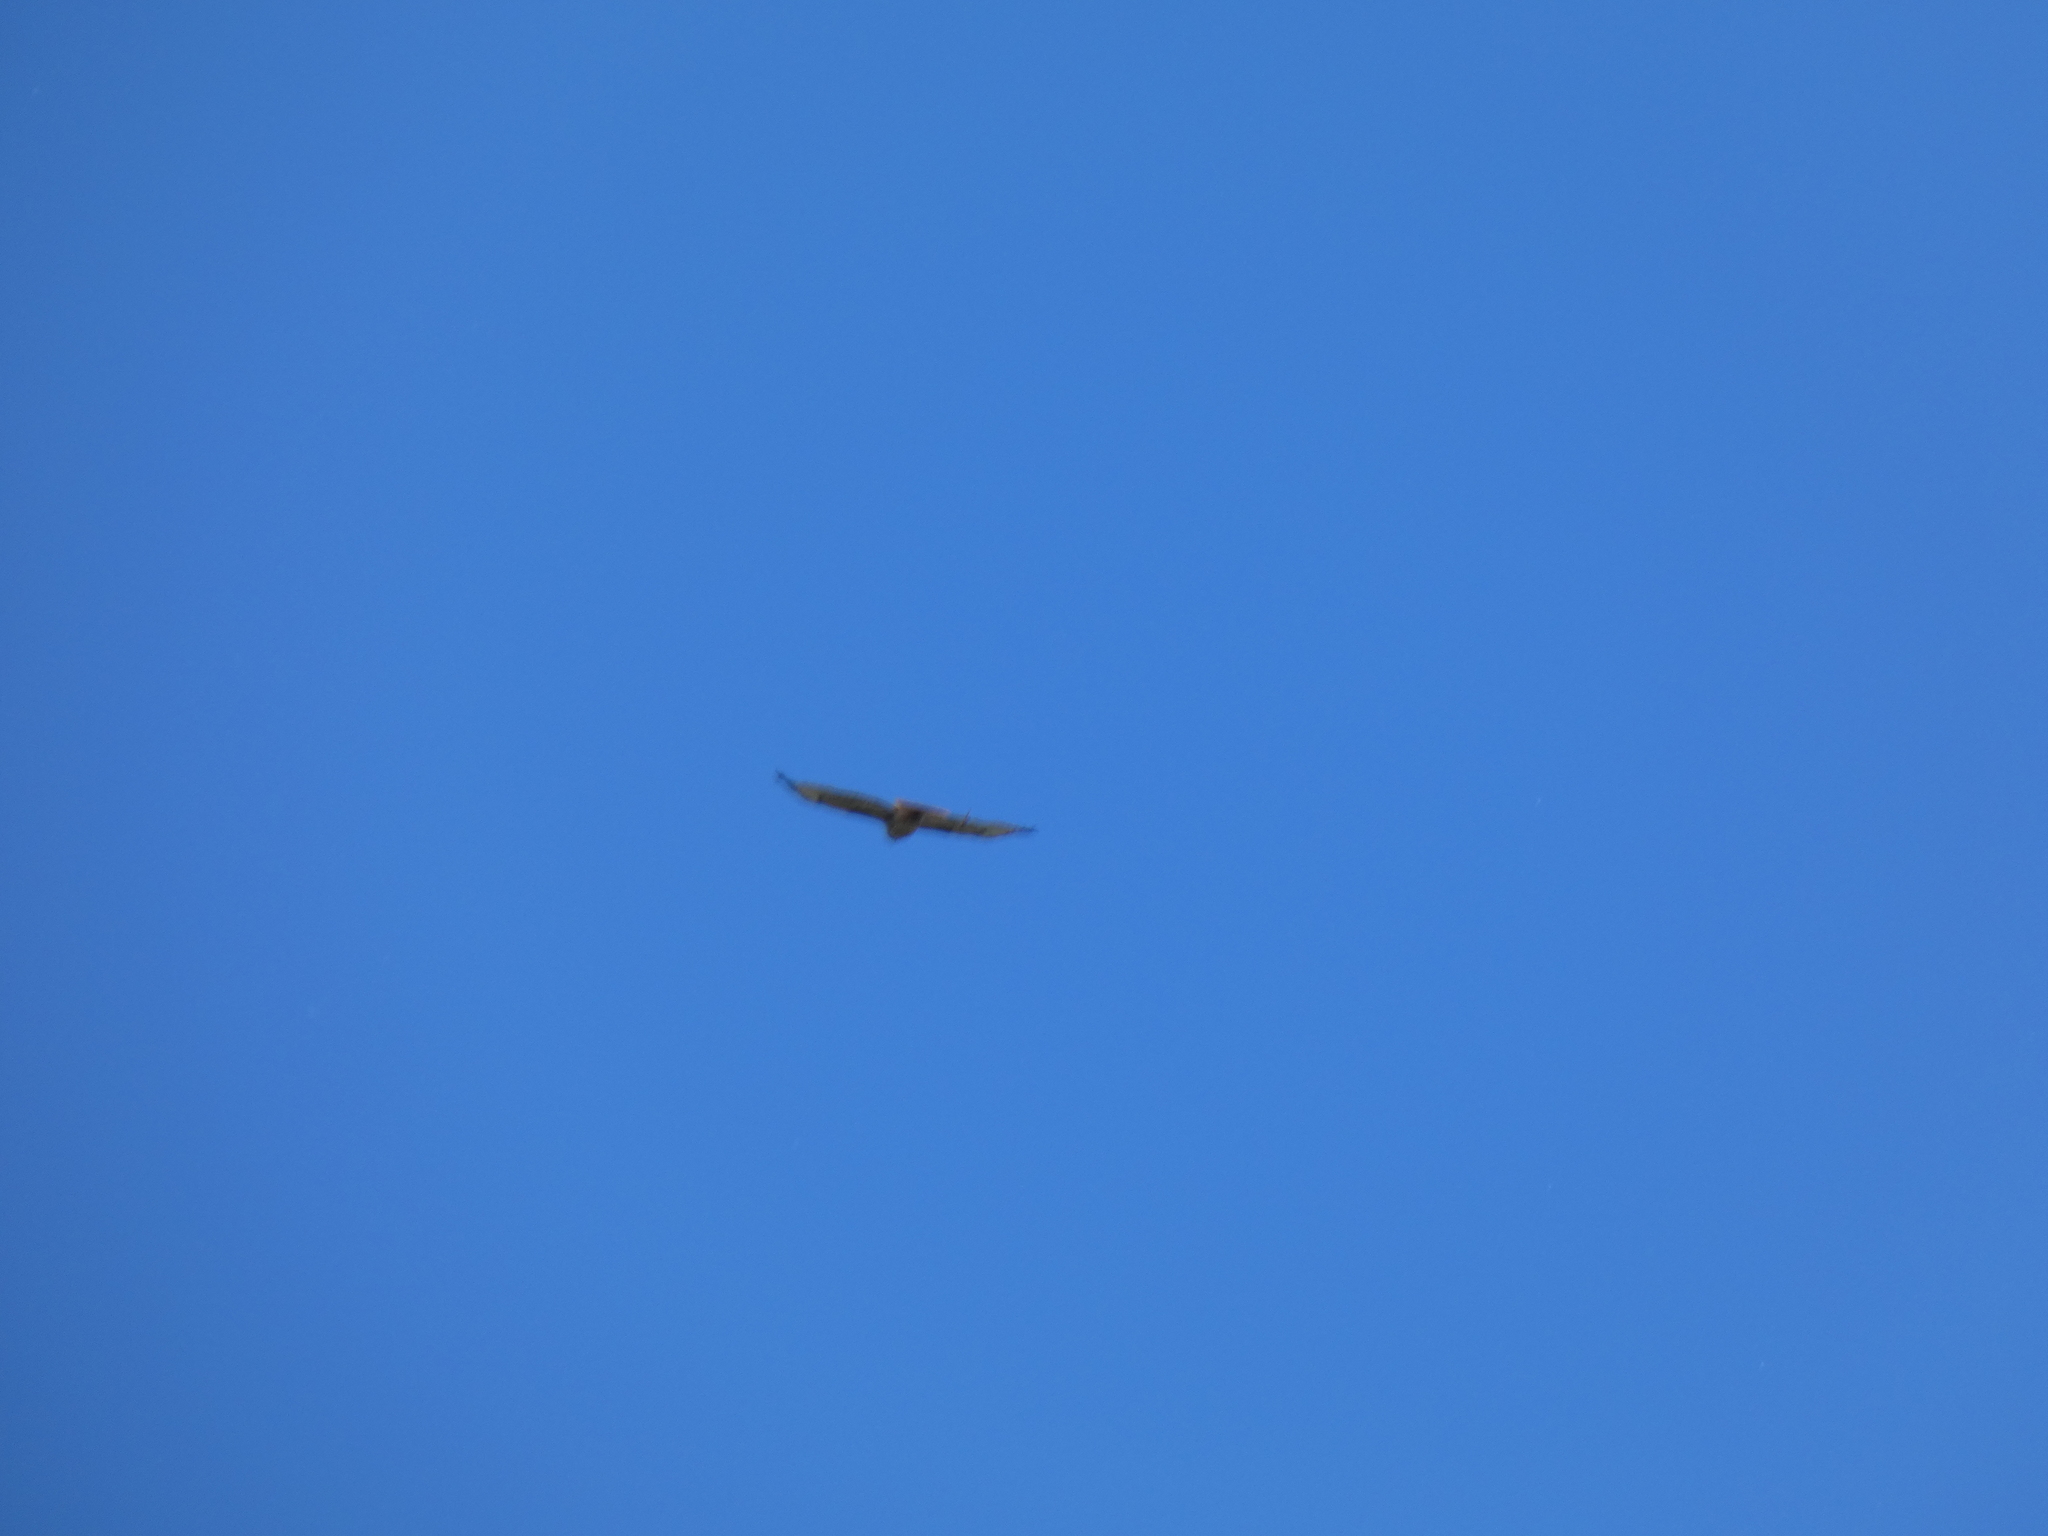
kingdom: Animalia
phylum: Chordata
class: Aves
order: Accipitriformes
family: Accipitridae
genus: Buteo
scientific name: Buteo jamaicensis
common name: Red-tailed hawk
